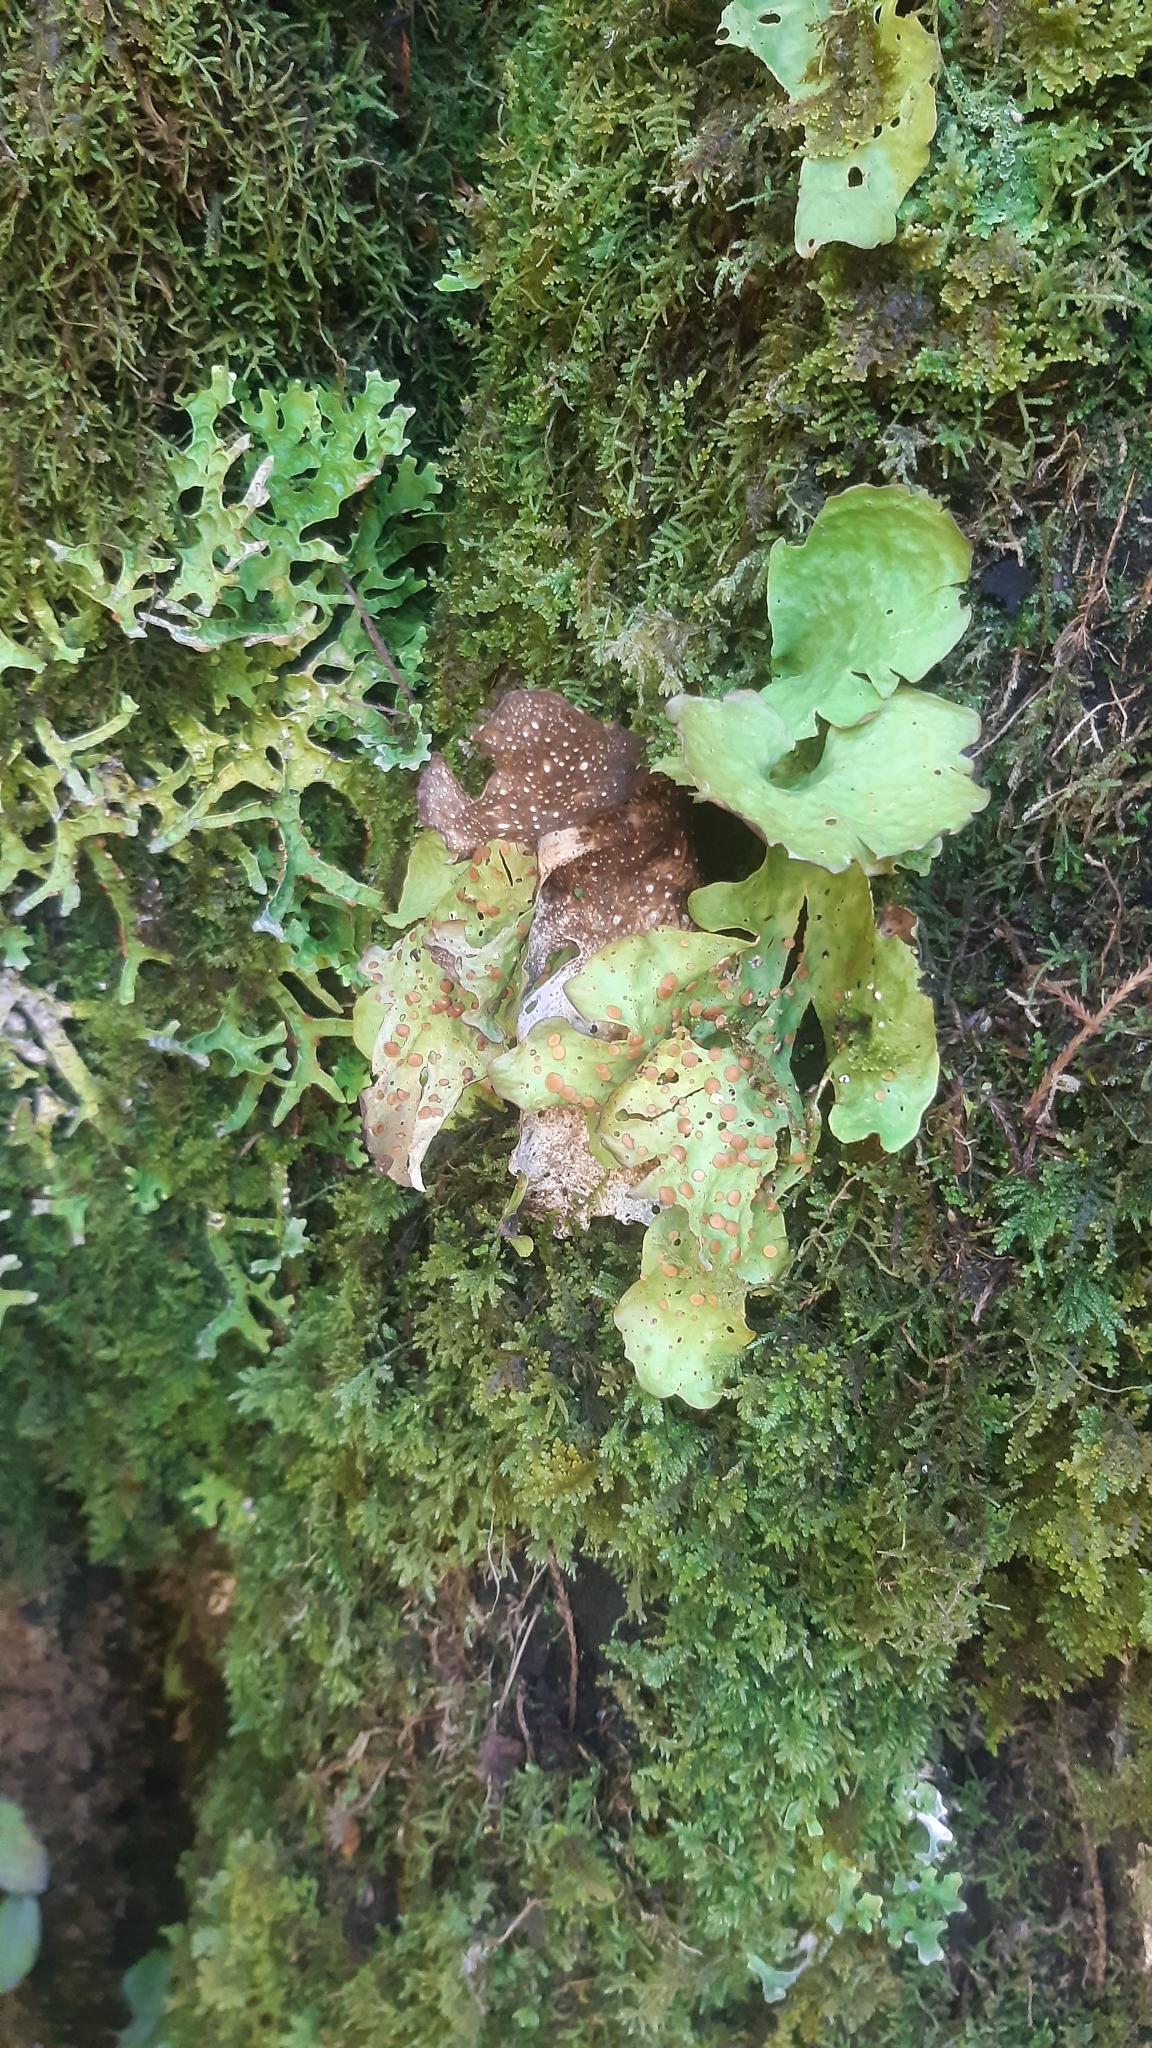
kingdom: Fungi
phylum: Ascomycota
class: Lecanoromycetes
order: Peltigerales
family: Lobariaceae
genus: Sticta
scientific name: Sticta latifrons
